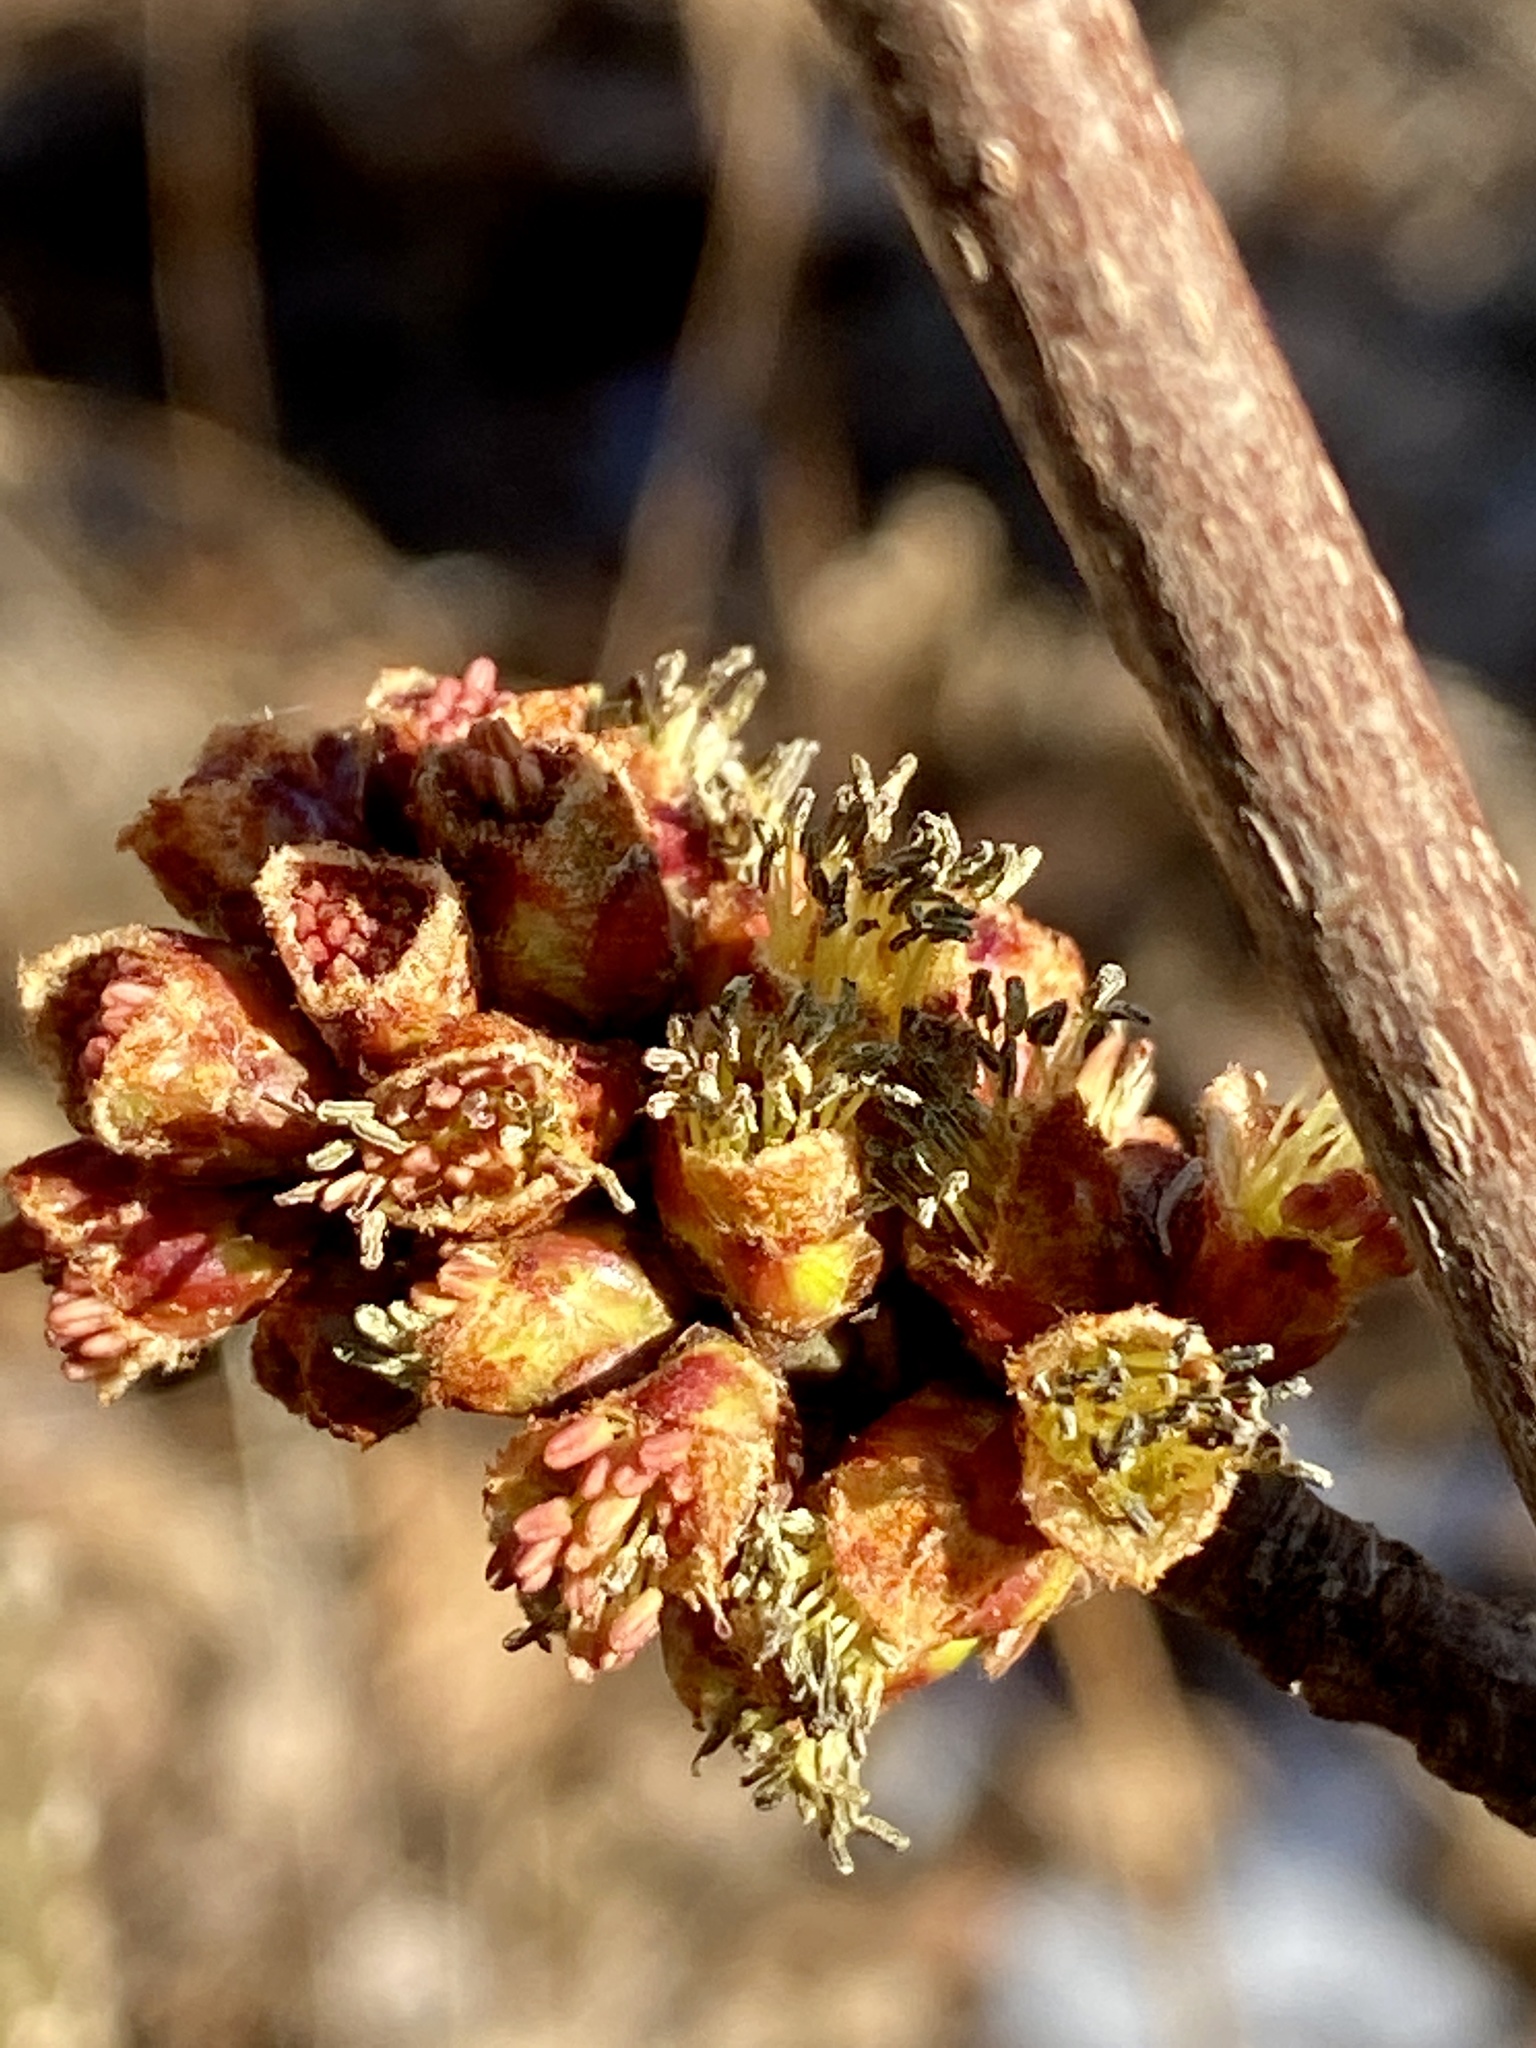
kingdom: Plantae
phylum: Tracheophyta
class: Magnoliopsida
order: Sapindales
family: Sapindaceae
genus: Acer
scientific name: Acer saccharinum
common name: Silver maple
